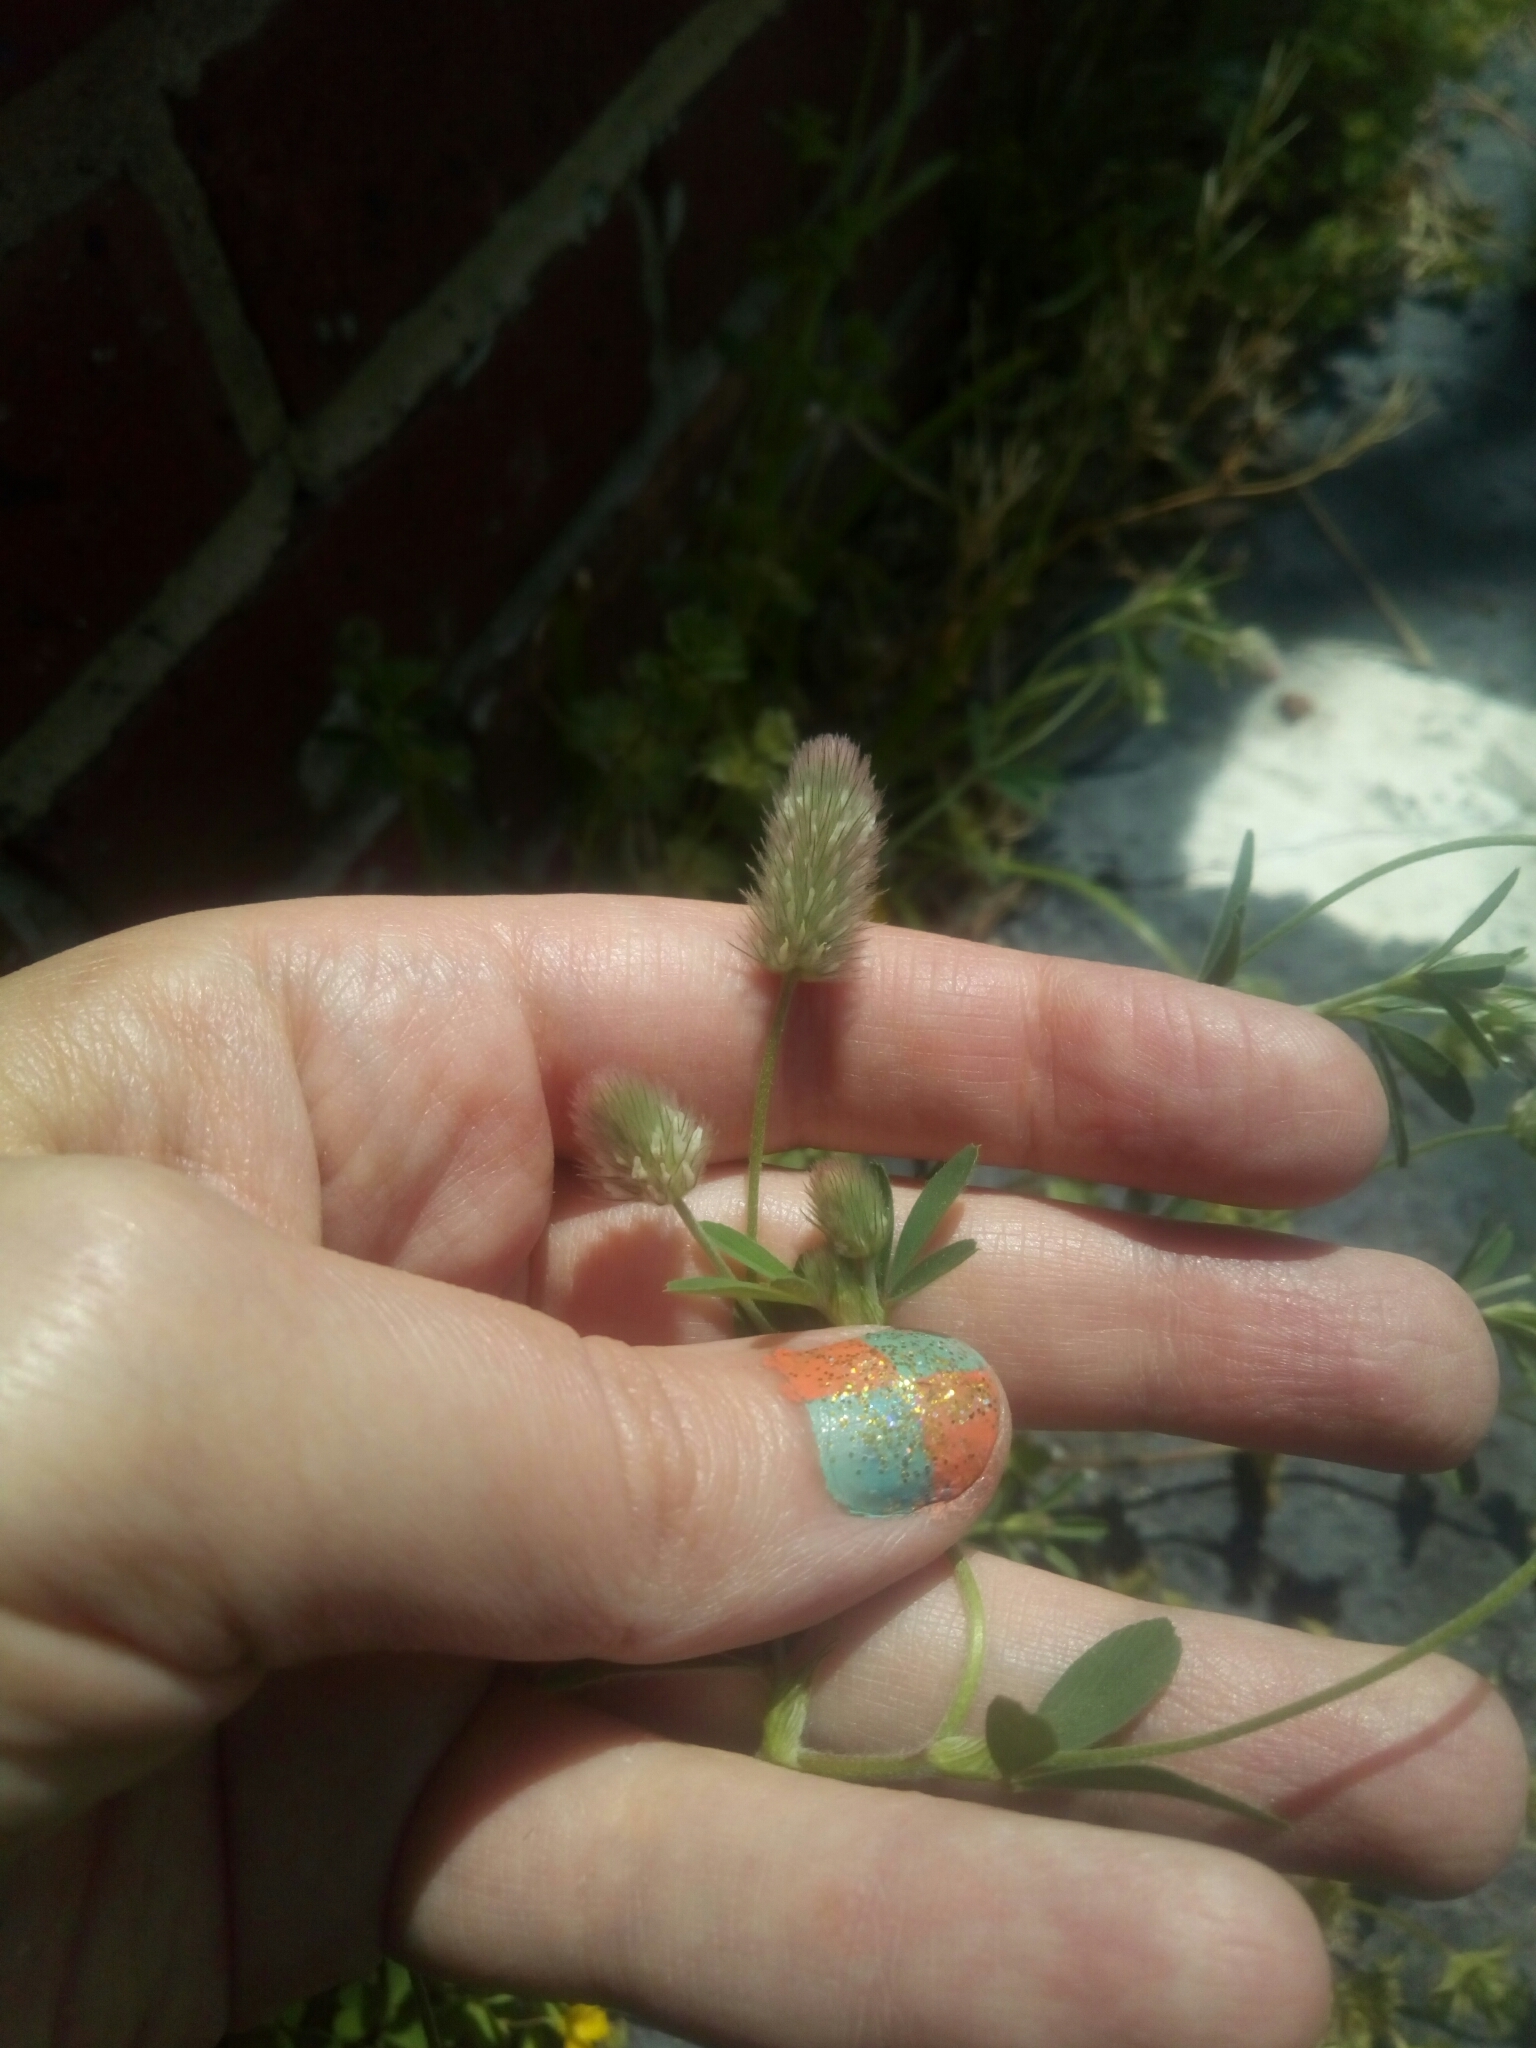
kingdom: Plantae
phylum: Tracheophyta
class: Magnoliopsida
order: Fabales
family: Fabaceae
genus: Trifolium
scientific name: Trifolium arvense
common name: Hare's-foot clover
